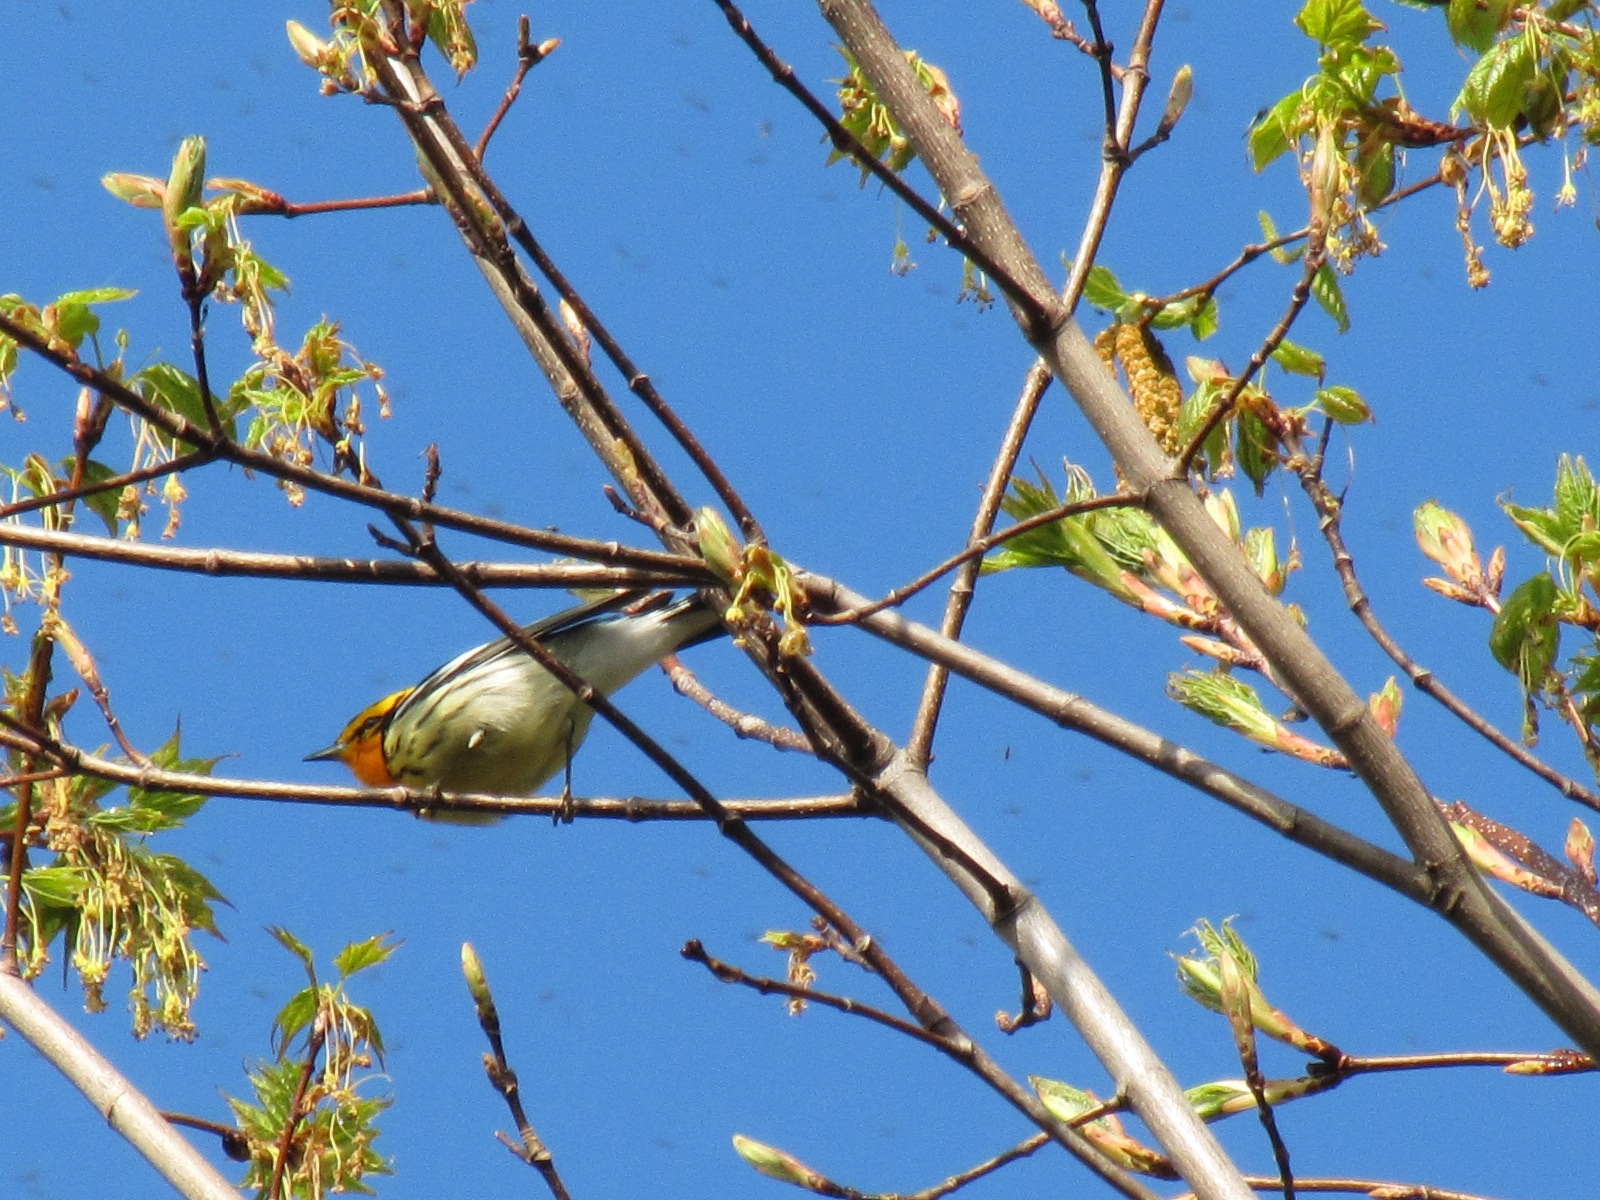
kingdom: Animalia
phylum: Chordata
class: Aves
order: Passeriformes
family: Parulidae
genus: Setophaga
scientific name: Setophaga fusca
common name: Blackburnian warbler
